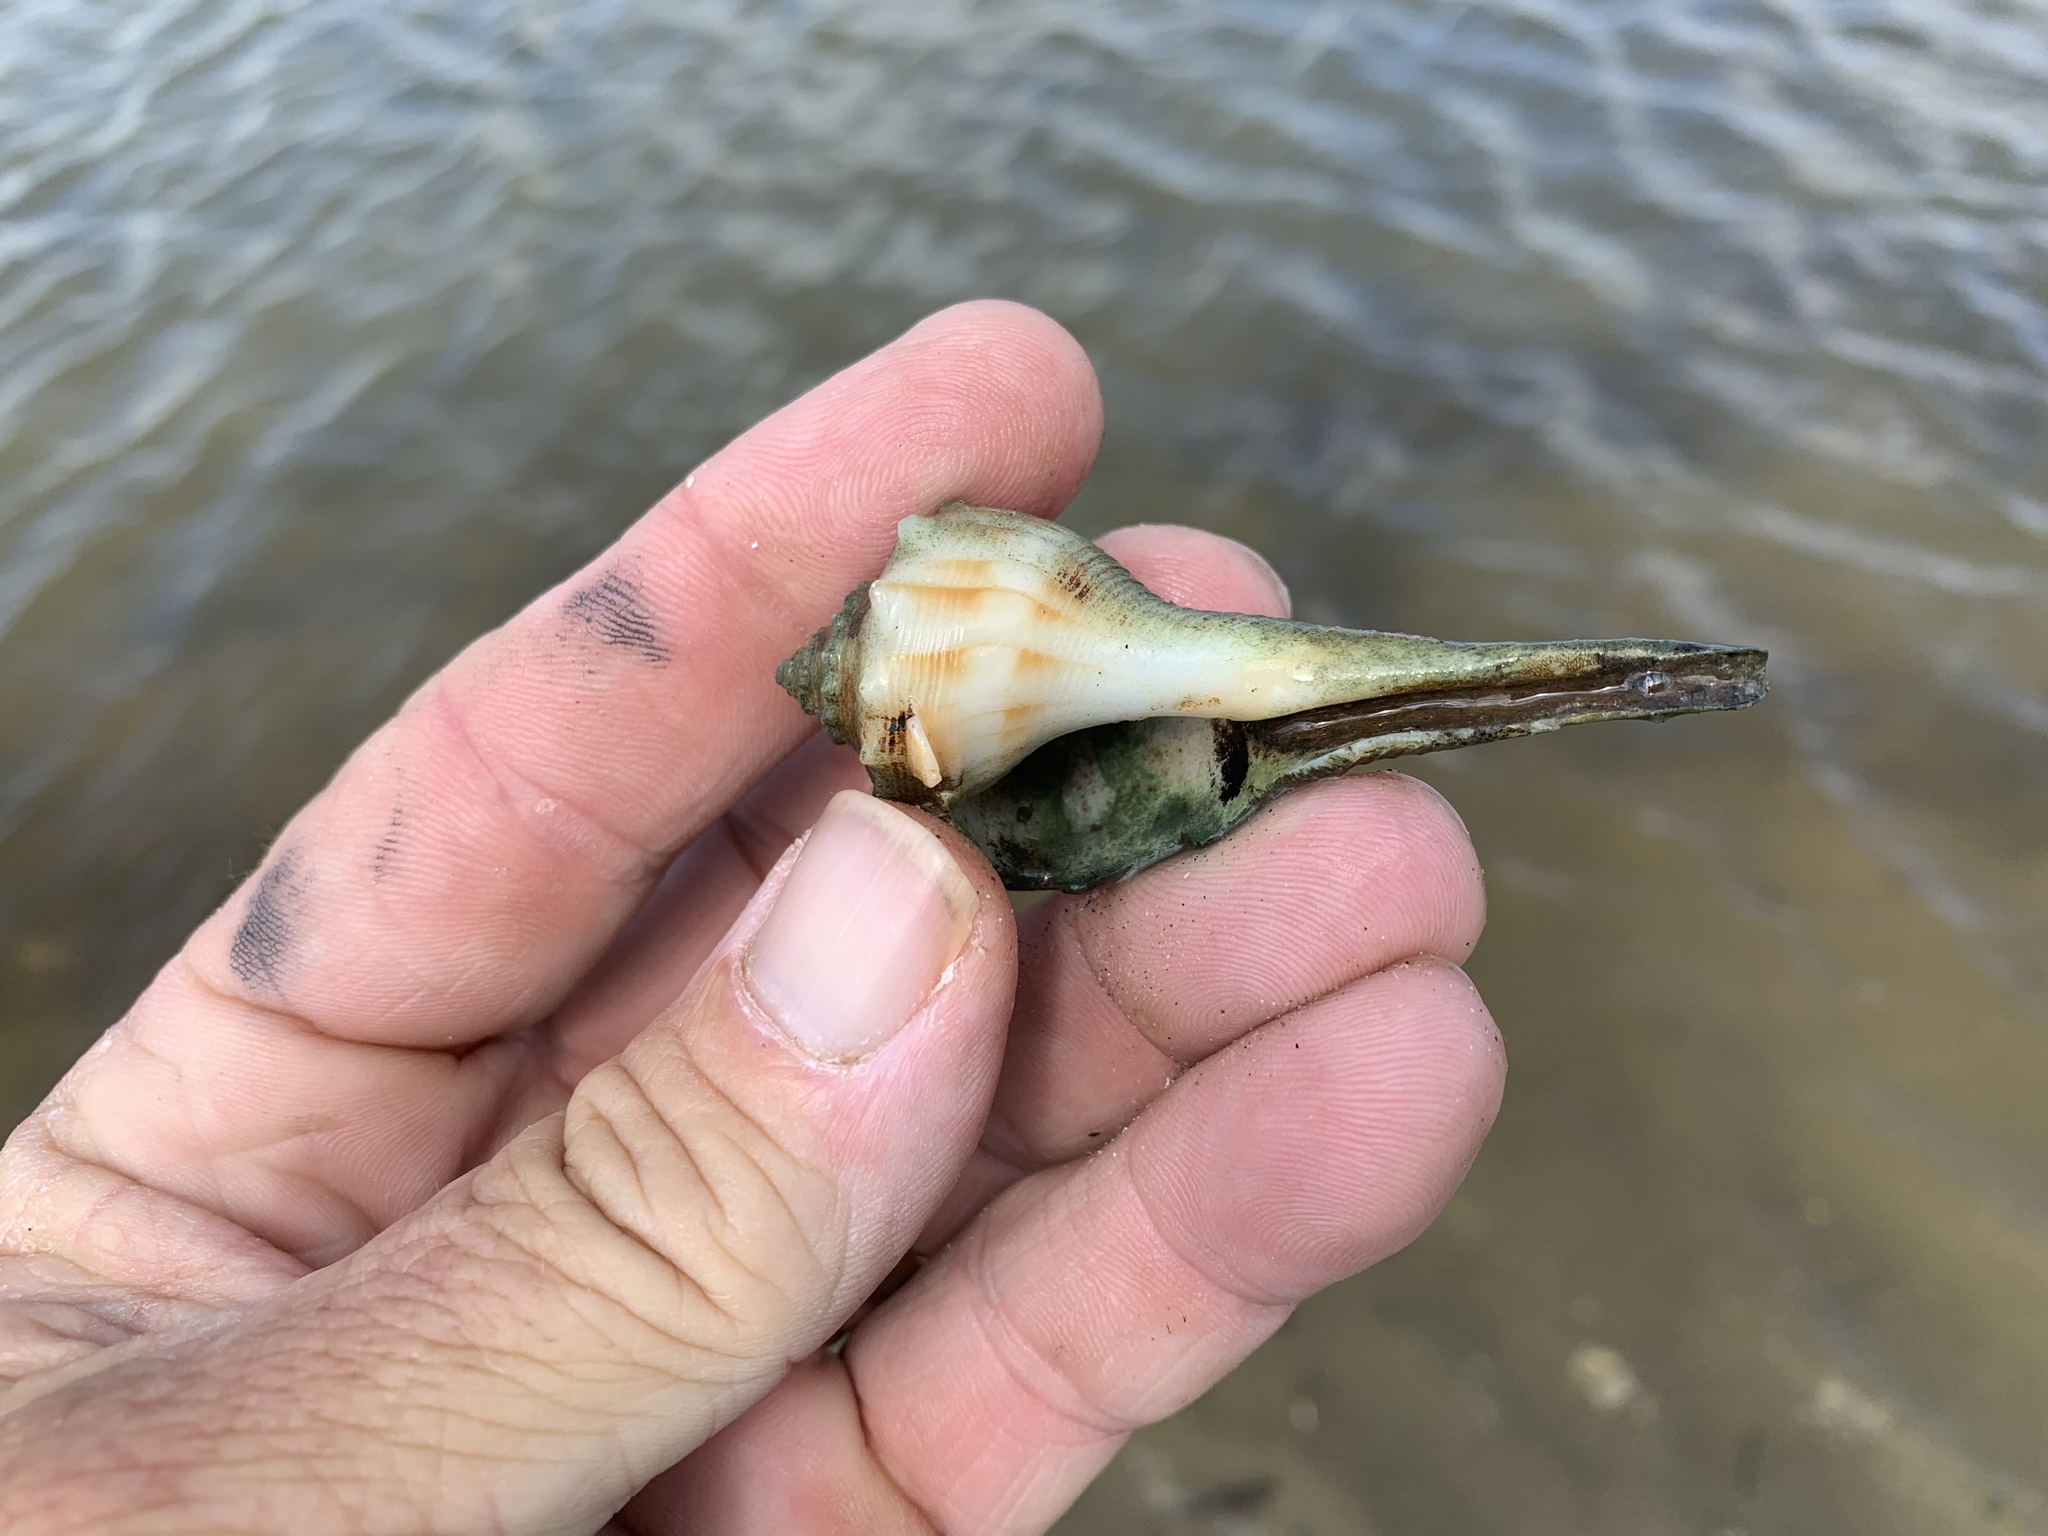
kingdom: Animalia
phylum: Mollusca
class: Gastropoda
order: Neogastropoda
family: Busyconidae
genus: Sinistrofulgur
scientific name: Sinistrofulgur pulleyi
